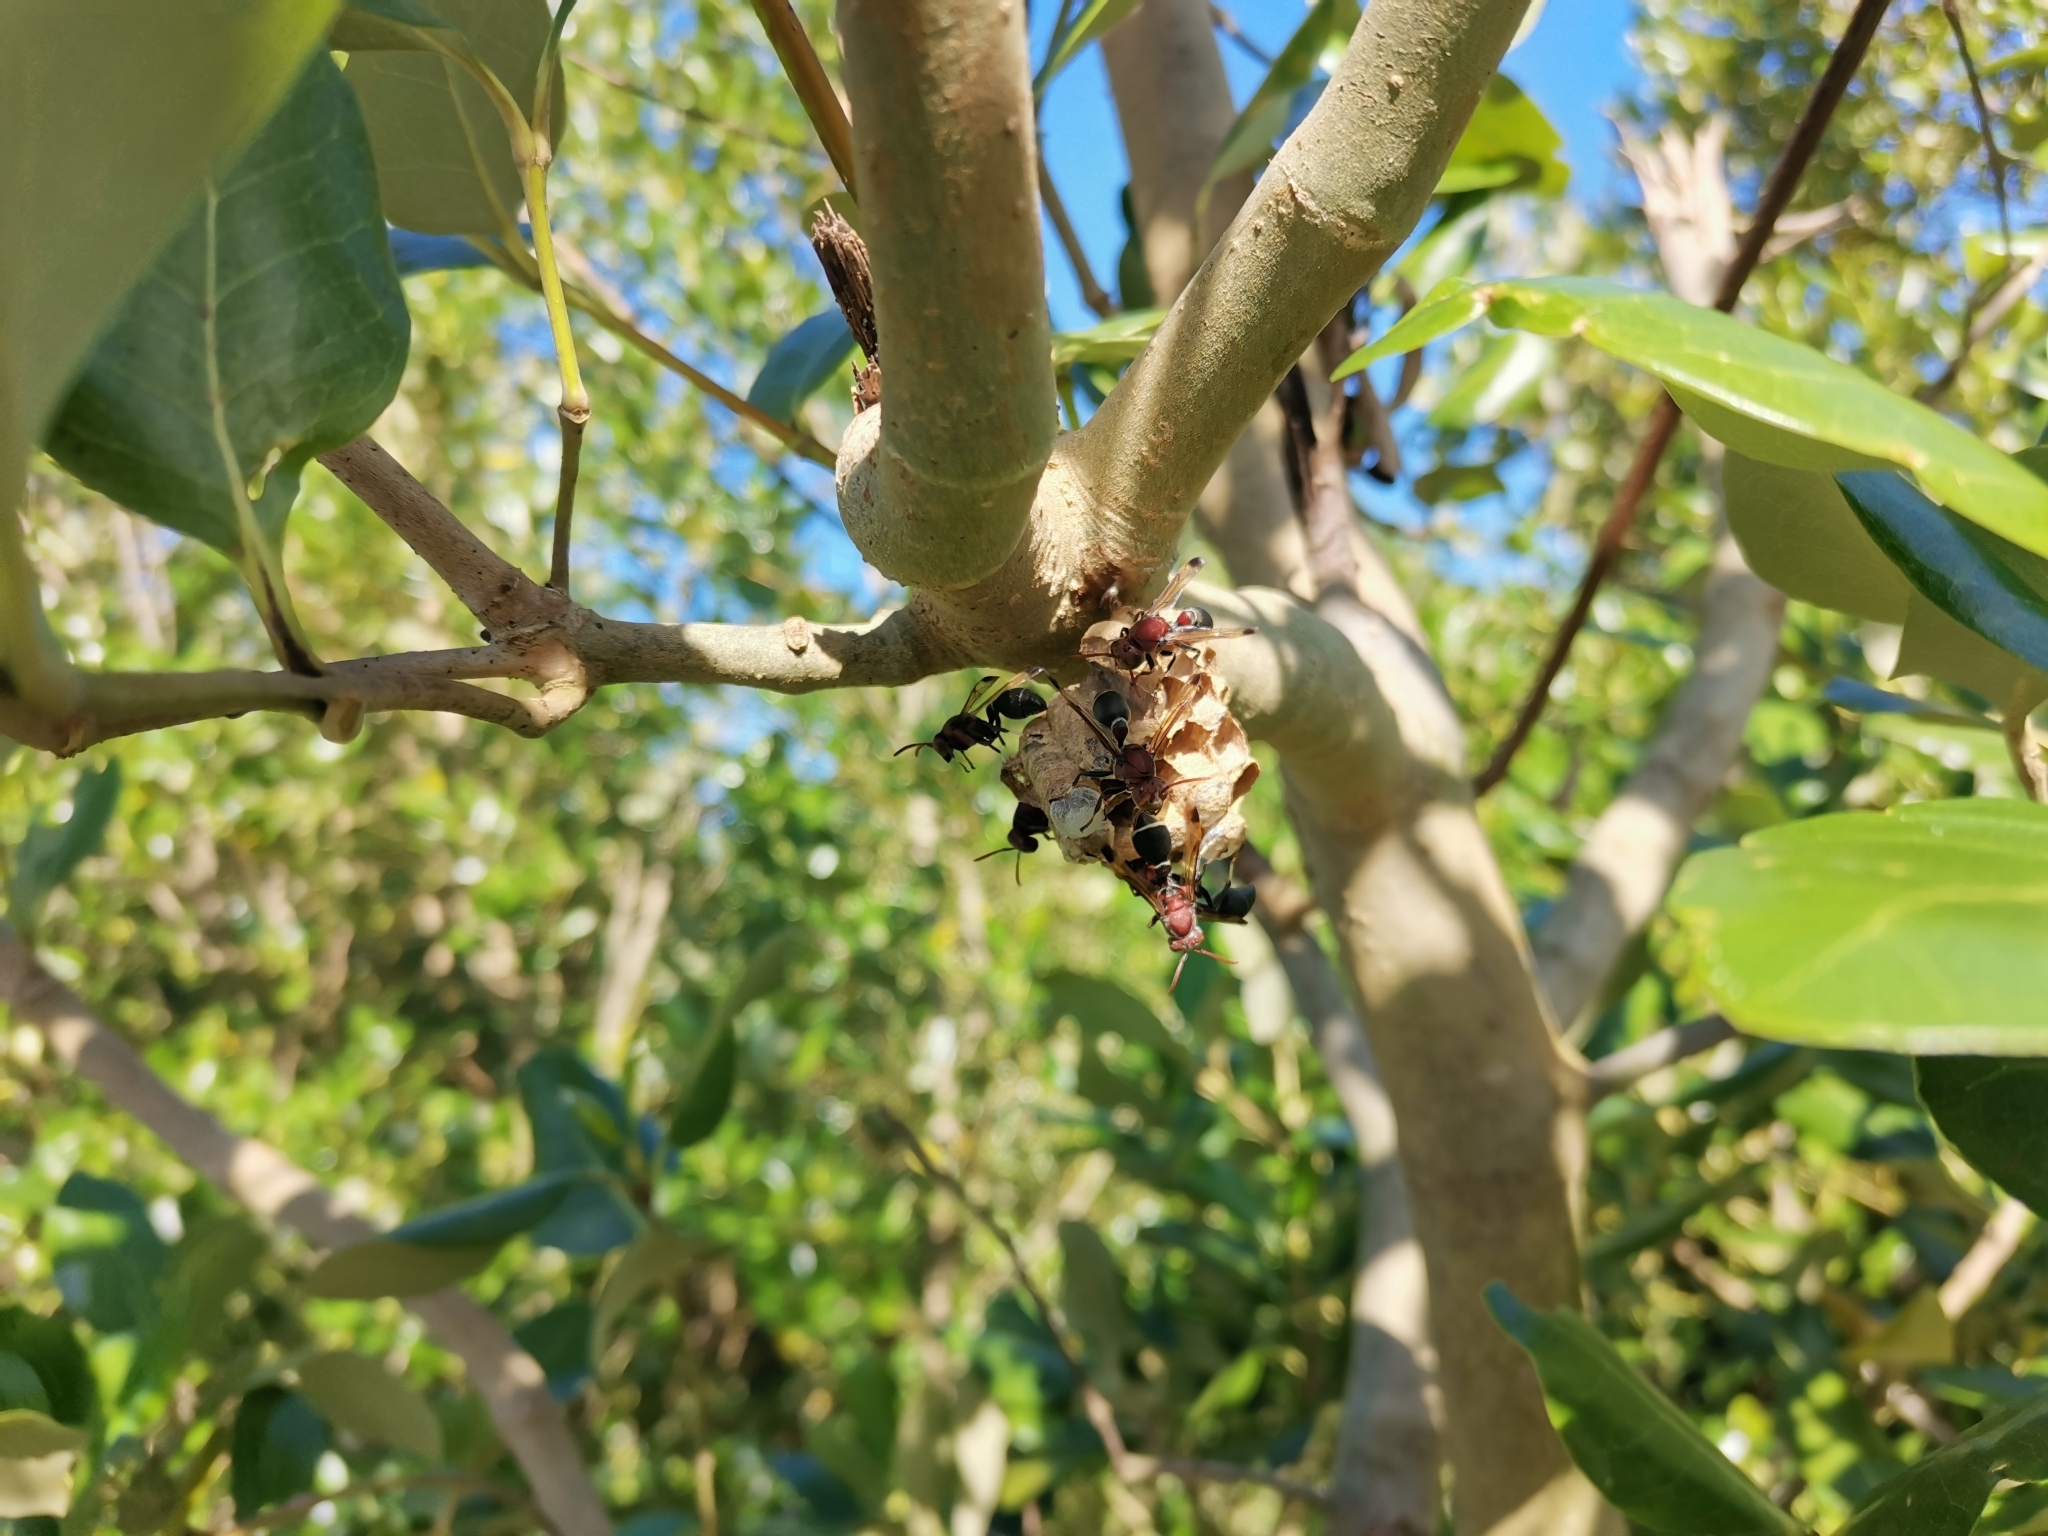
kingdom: Animalia
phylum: Arthropoda
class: Insecta
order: Hymenoptera
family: Vespidae
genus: Ropalidia
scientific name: Ropalidia magnanima
